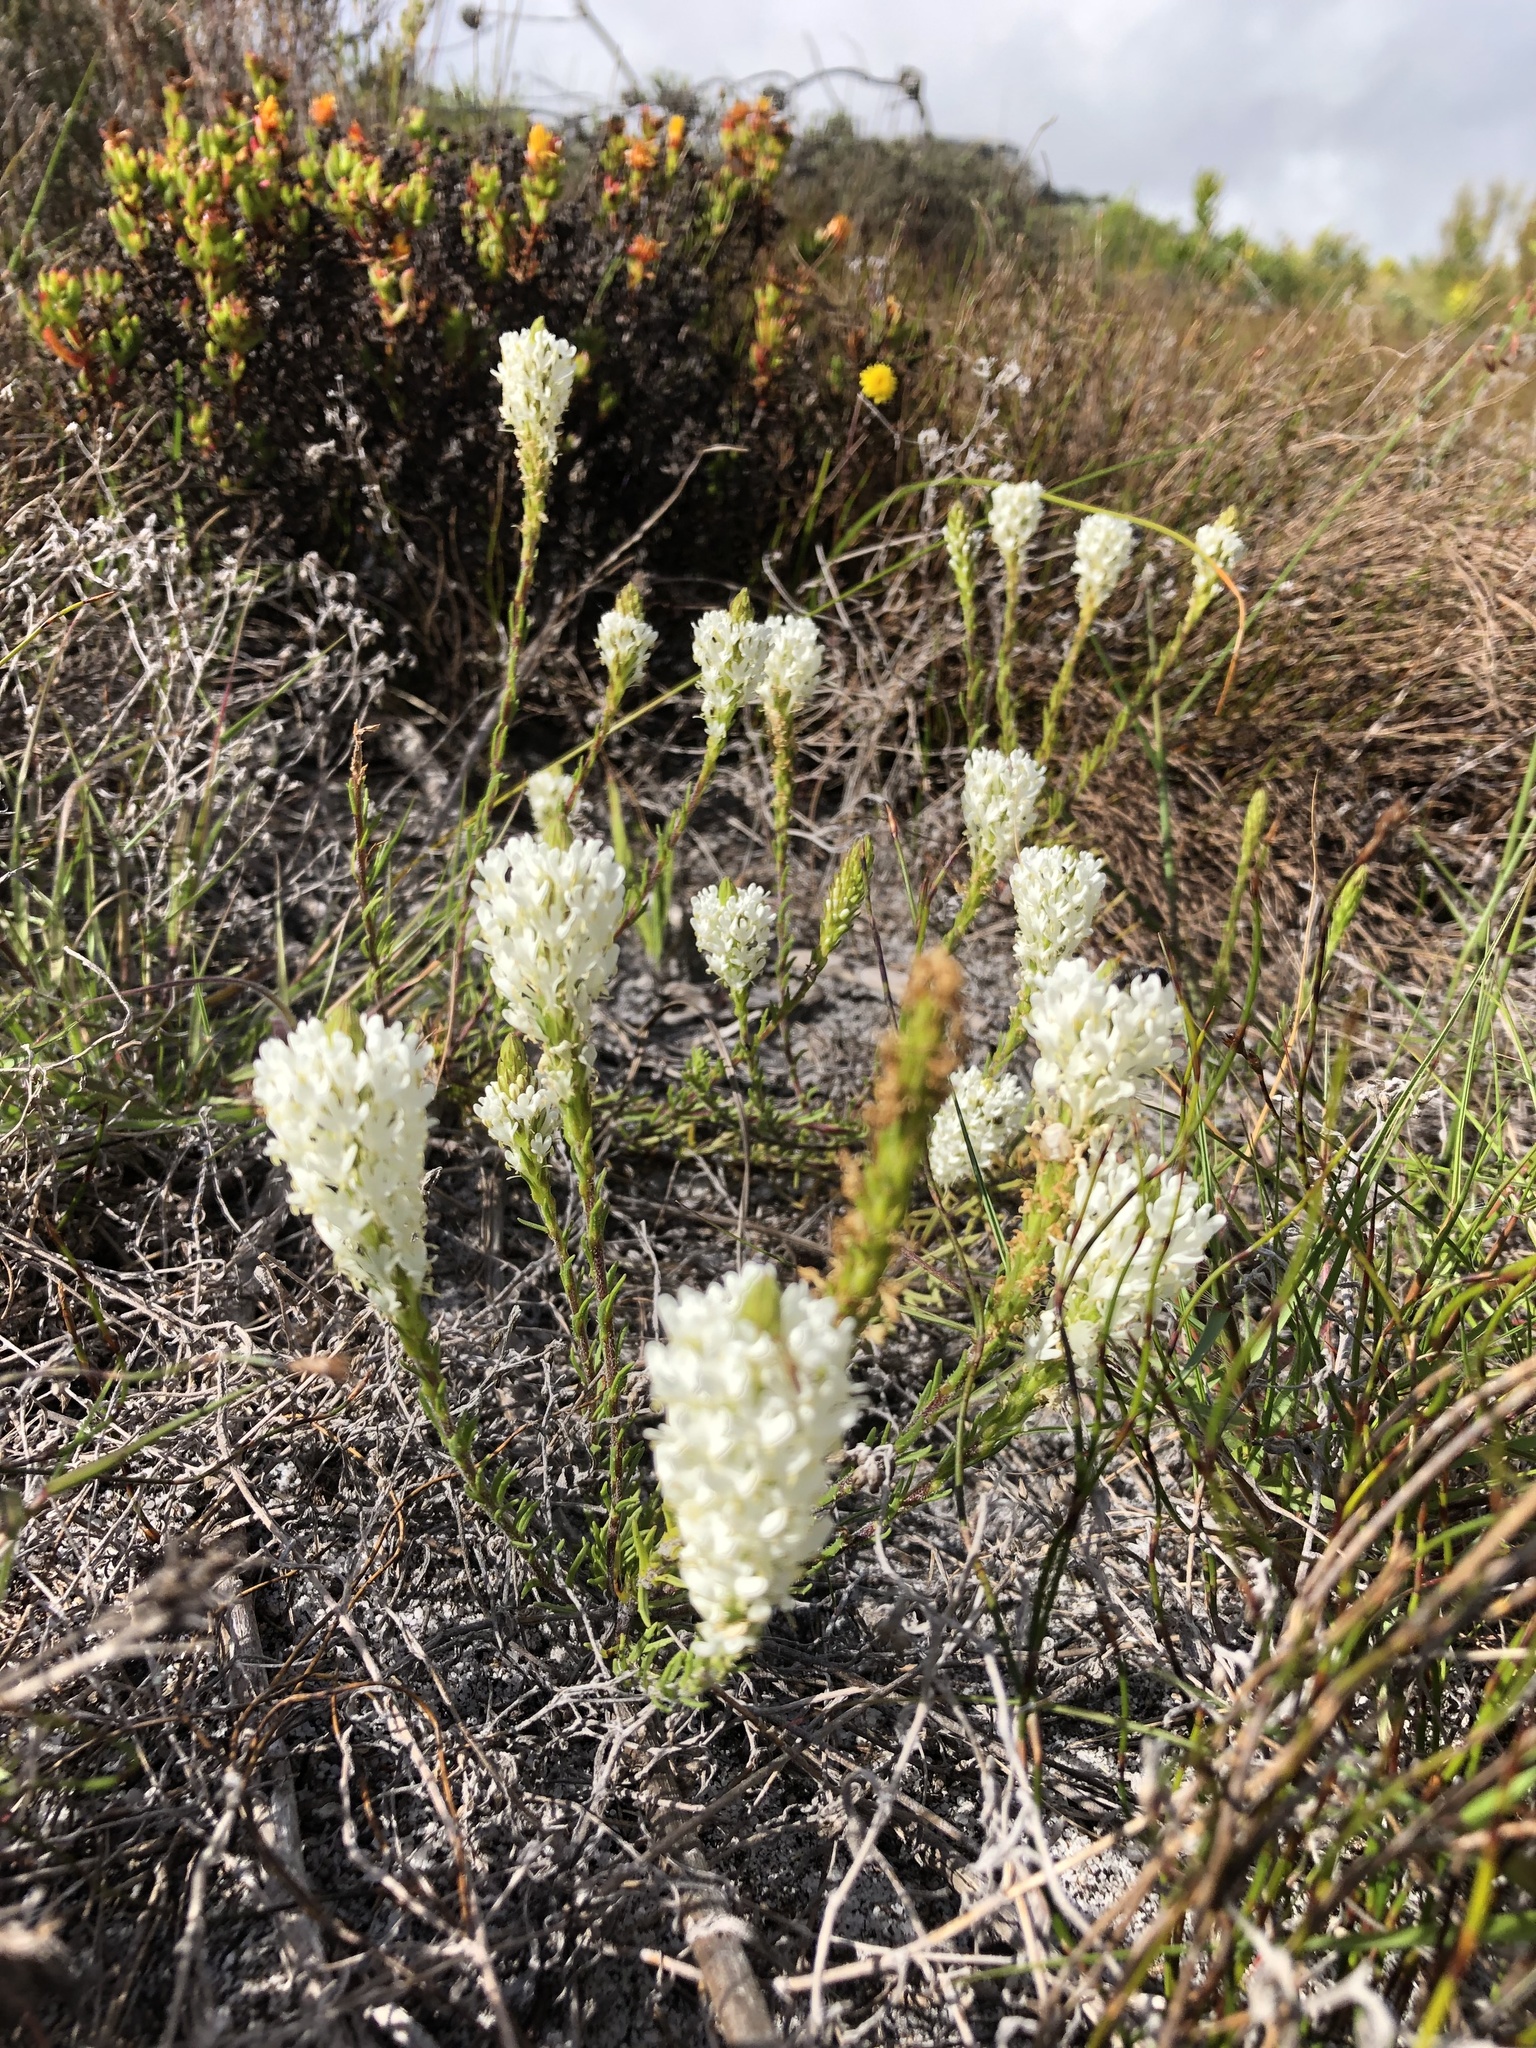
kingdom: Plantae
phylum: Tracheophyta
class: Magnoliopsida
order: Lamiales
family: Scrophulariaceae
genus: Dischisma
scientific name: Dischisma ciliatum
